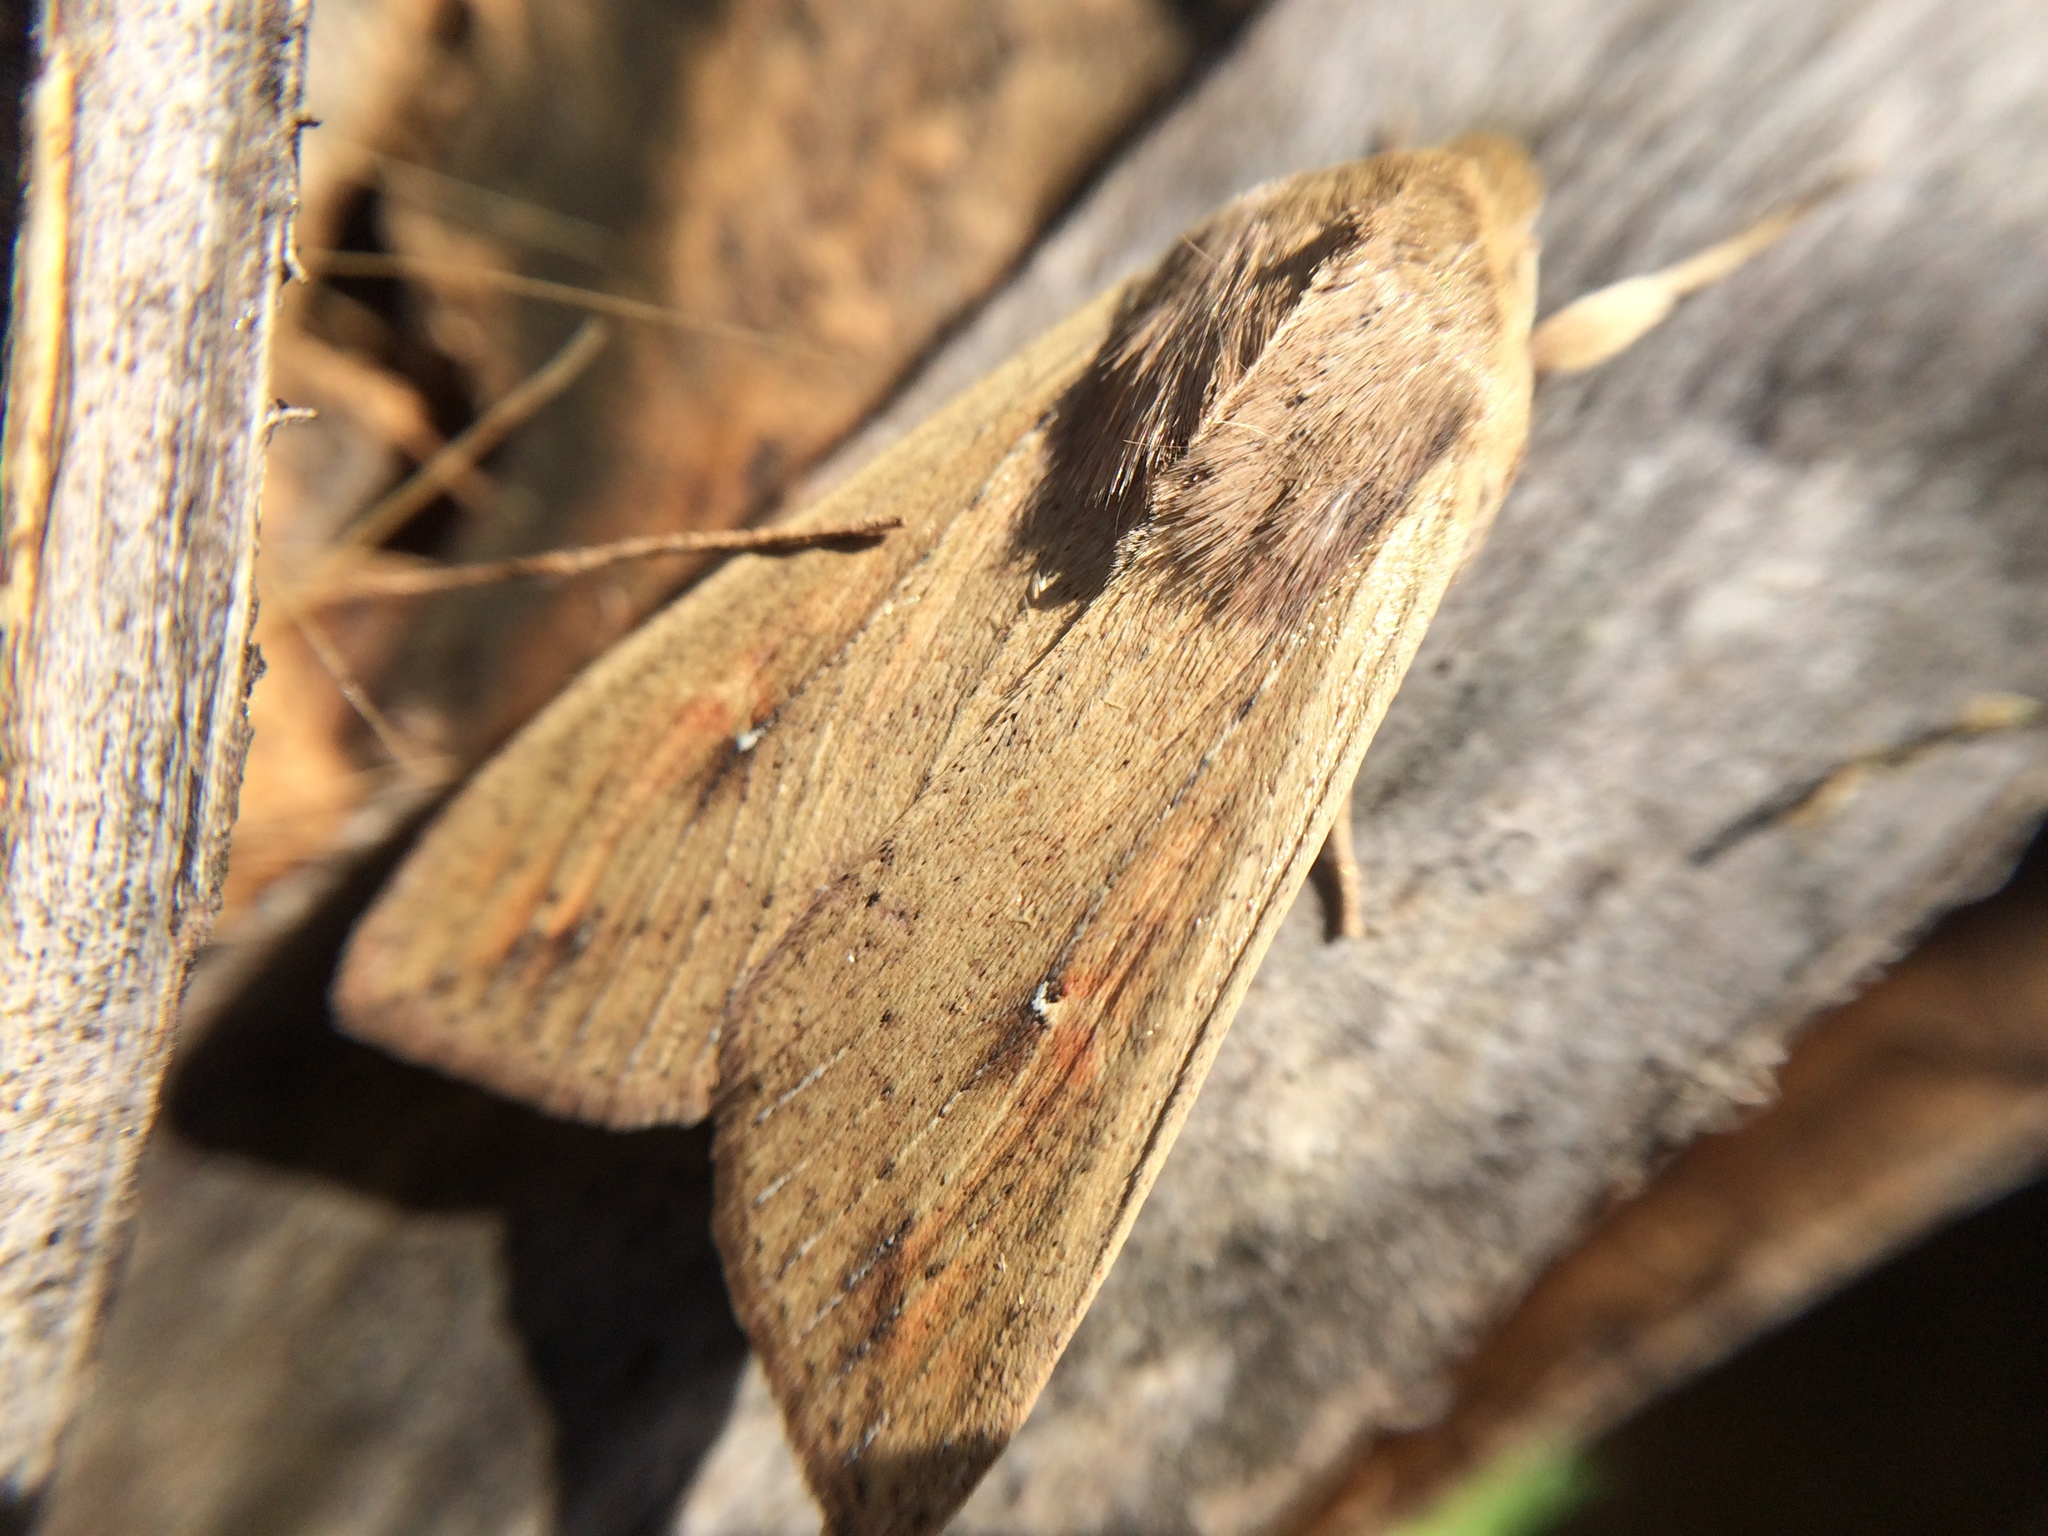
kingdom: Animalia
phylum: Arthropoda
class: Insecta
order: Lepidoptera
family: Noctuidae
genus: Mythimna
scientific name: Mythimna unipuncta
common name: White-speck
